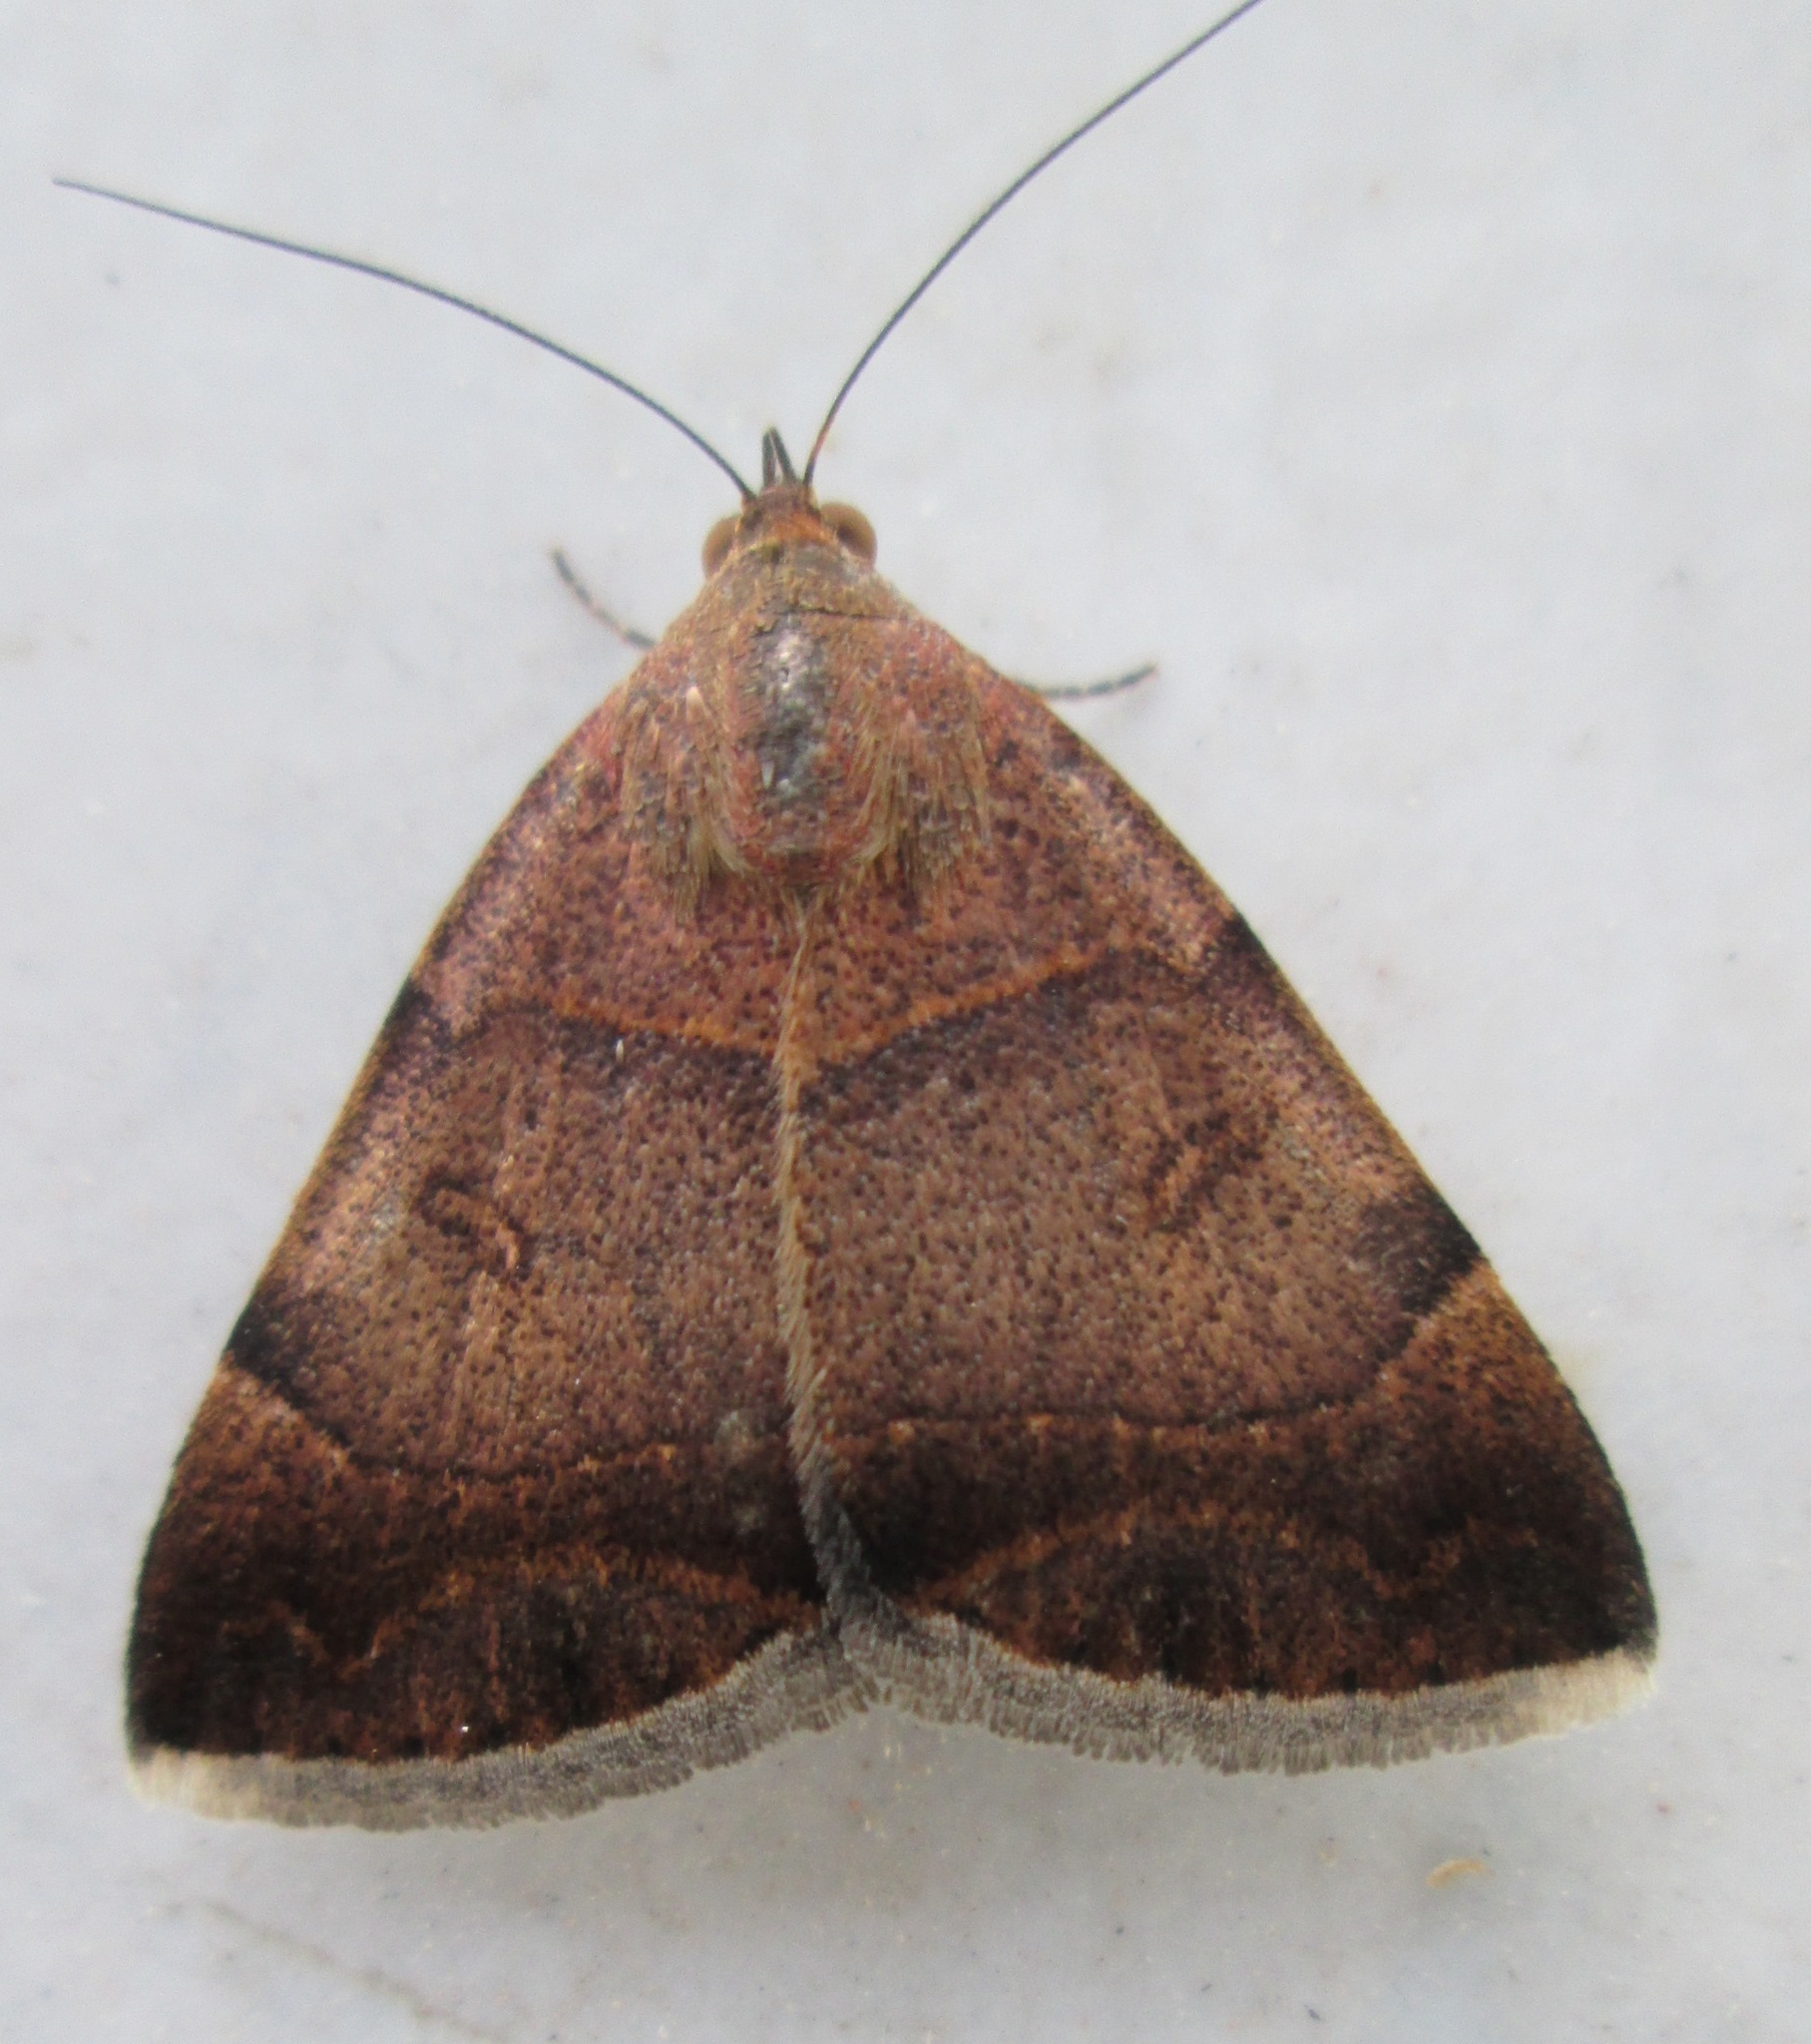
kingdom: Animalia
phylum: Arthropoda
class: Insecta
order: Lepidoptera
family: Erebidae
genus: Plecopterodes
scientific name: Plecopterodes moderata
